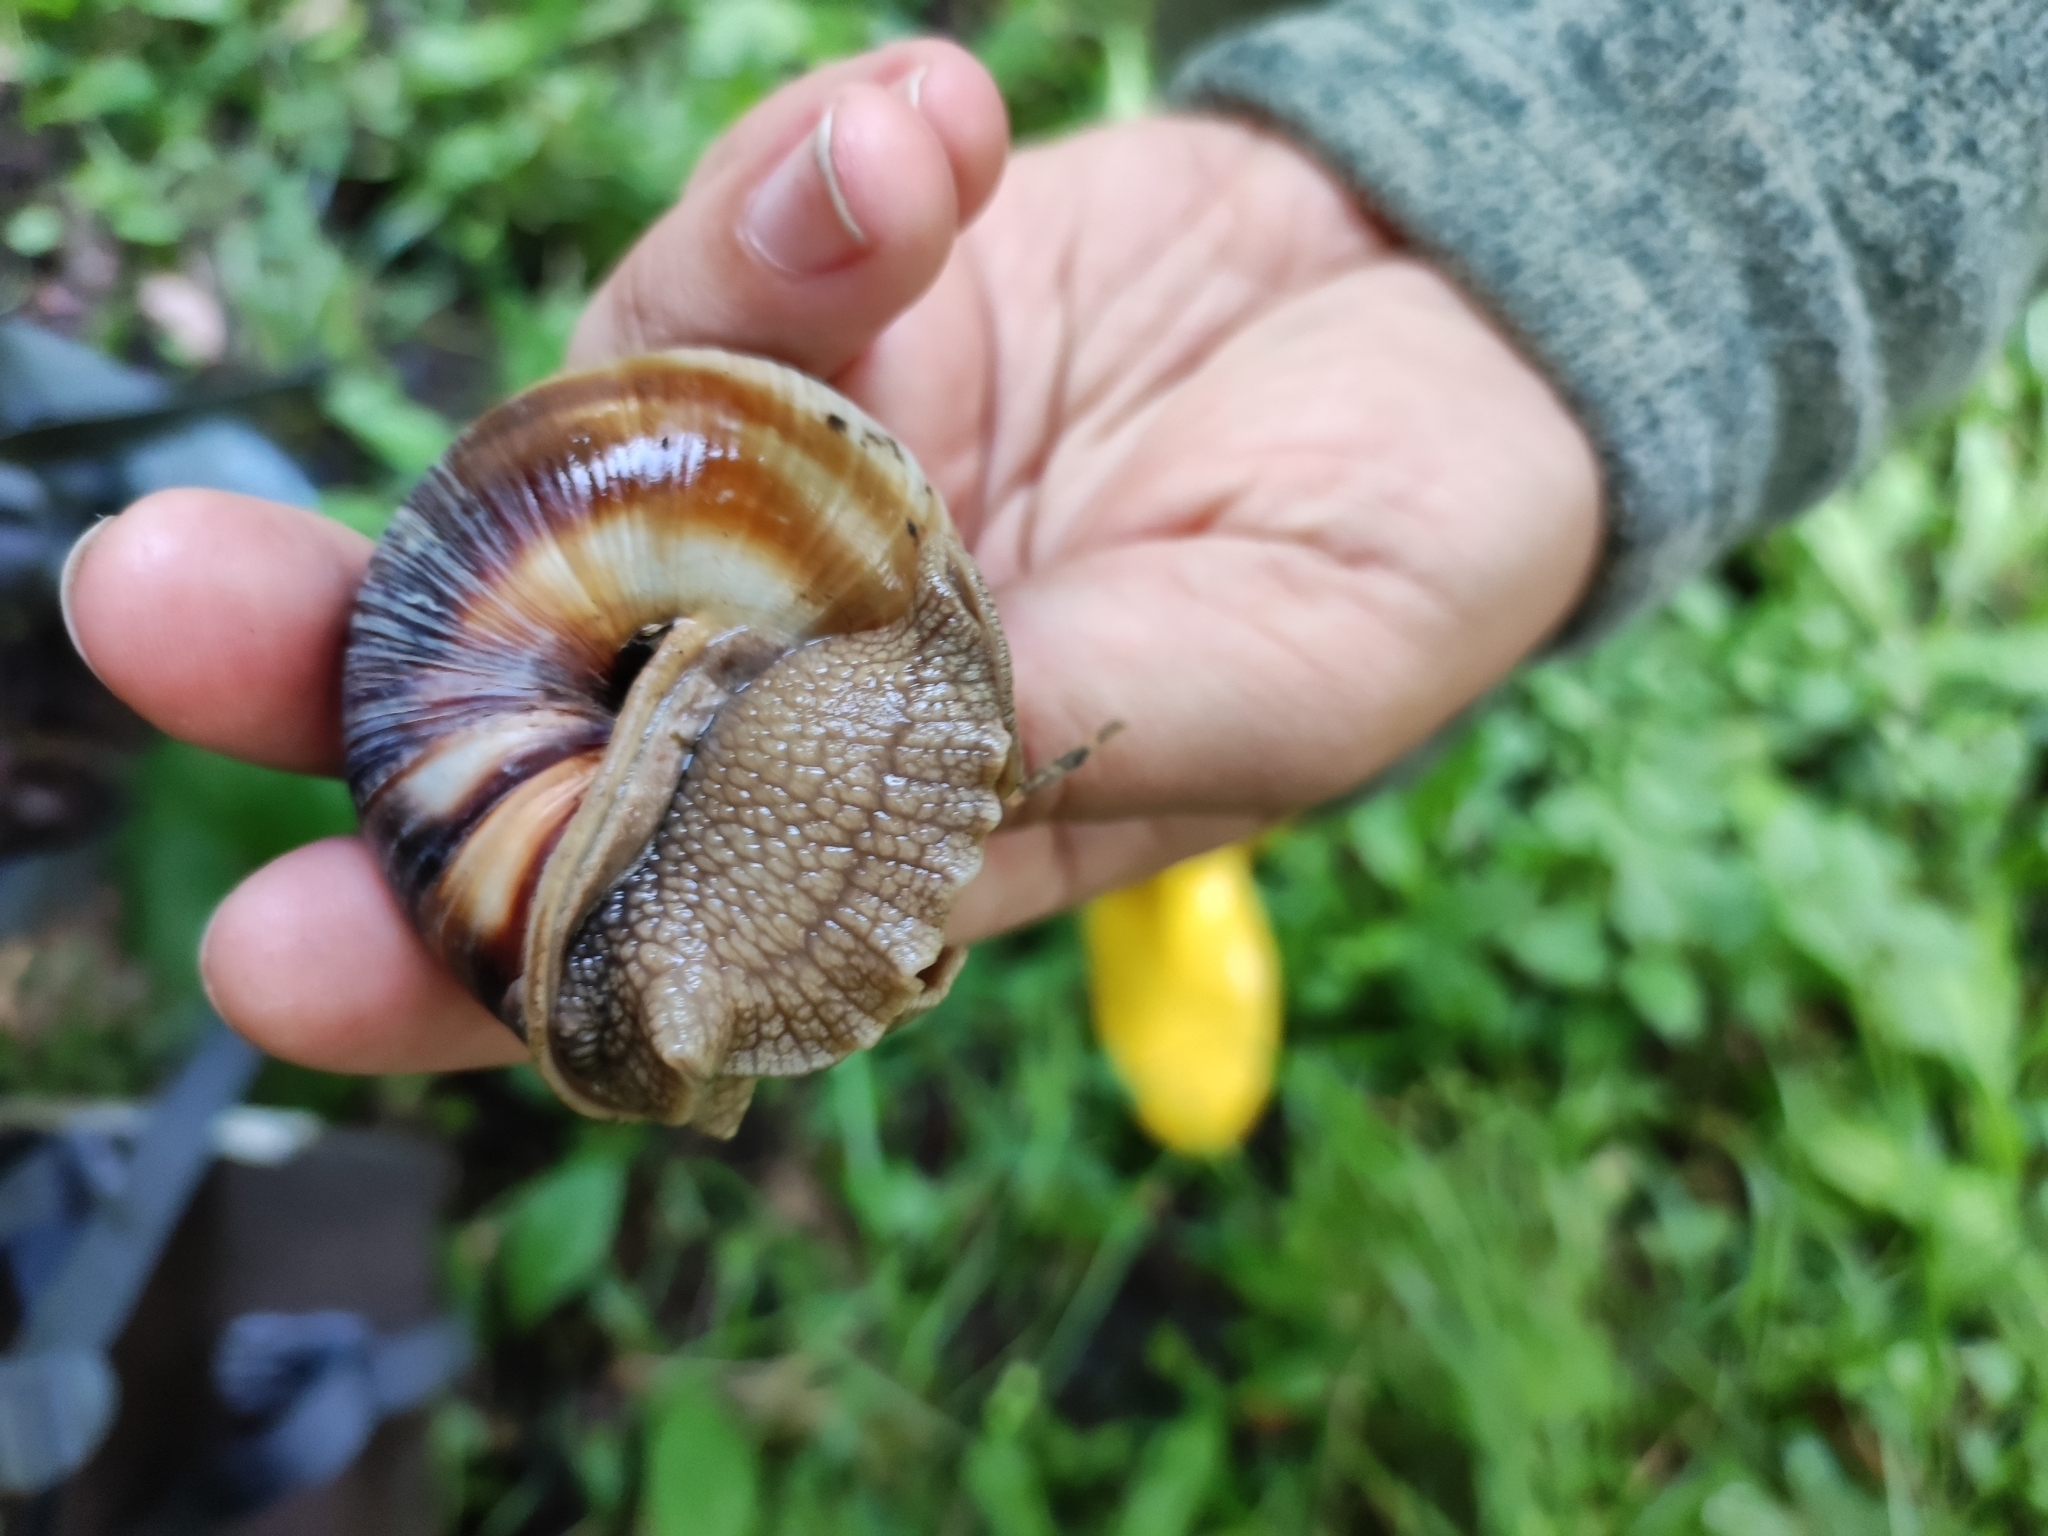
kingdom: Animalia
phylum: Mollusca
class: Gastropoda
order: Stylommatophora
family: Helicidae
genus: Helix
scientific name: Helix lucorum
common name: Turkish snail
